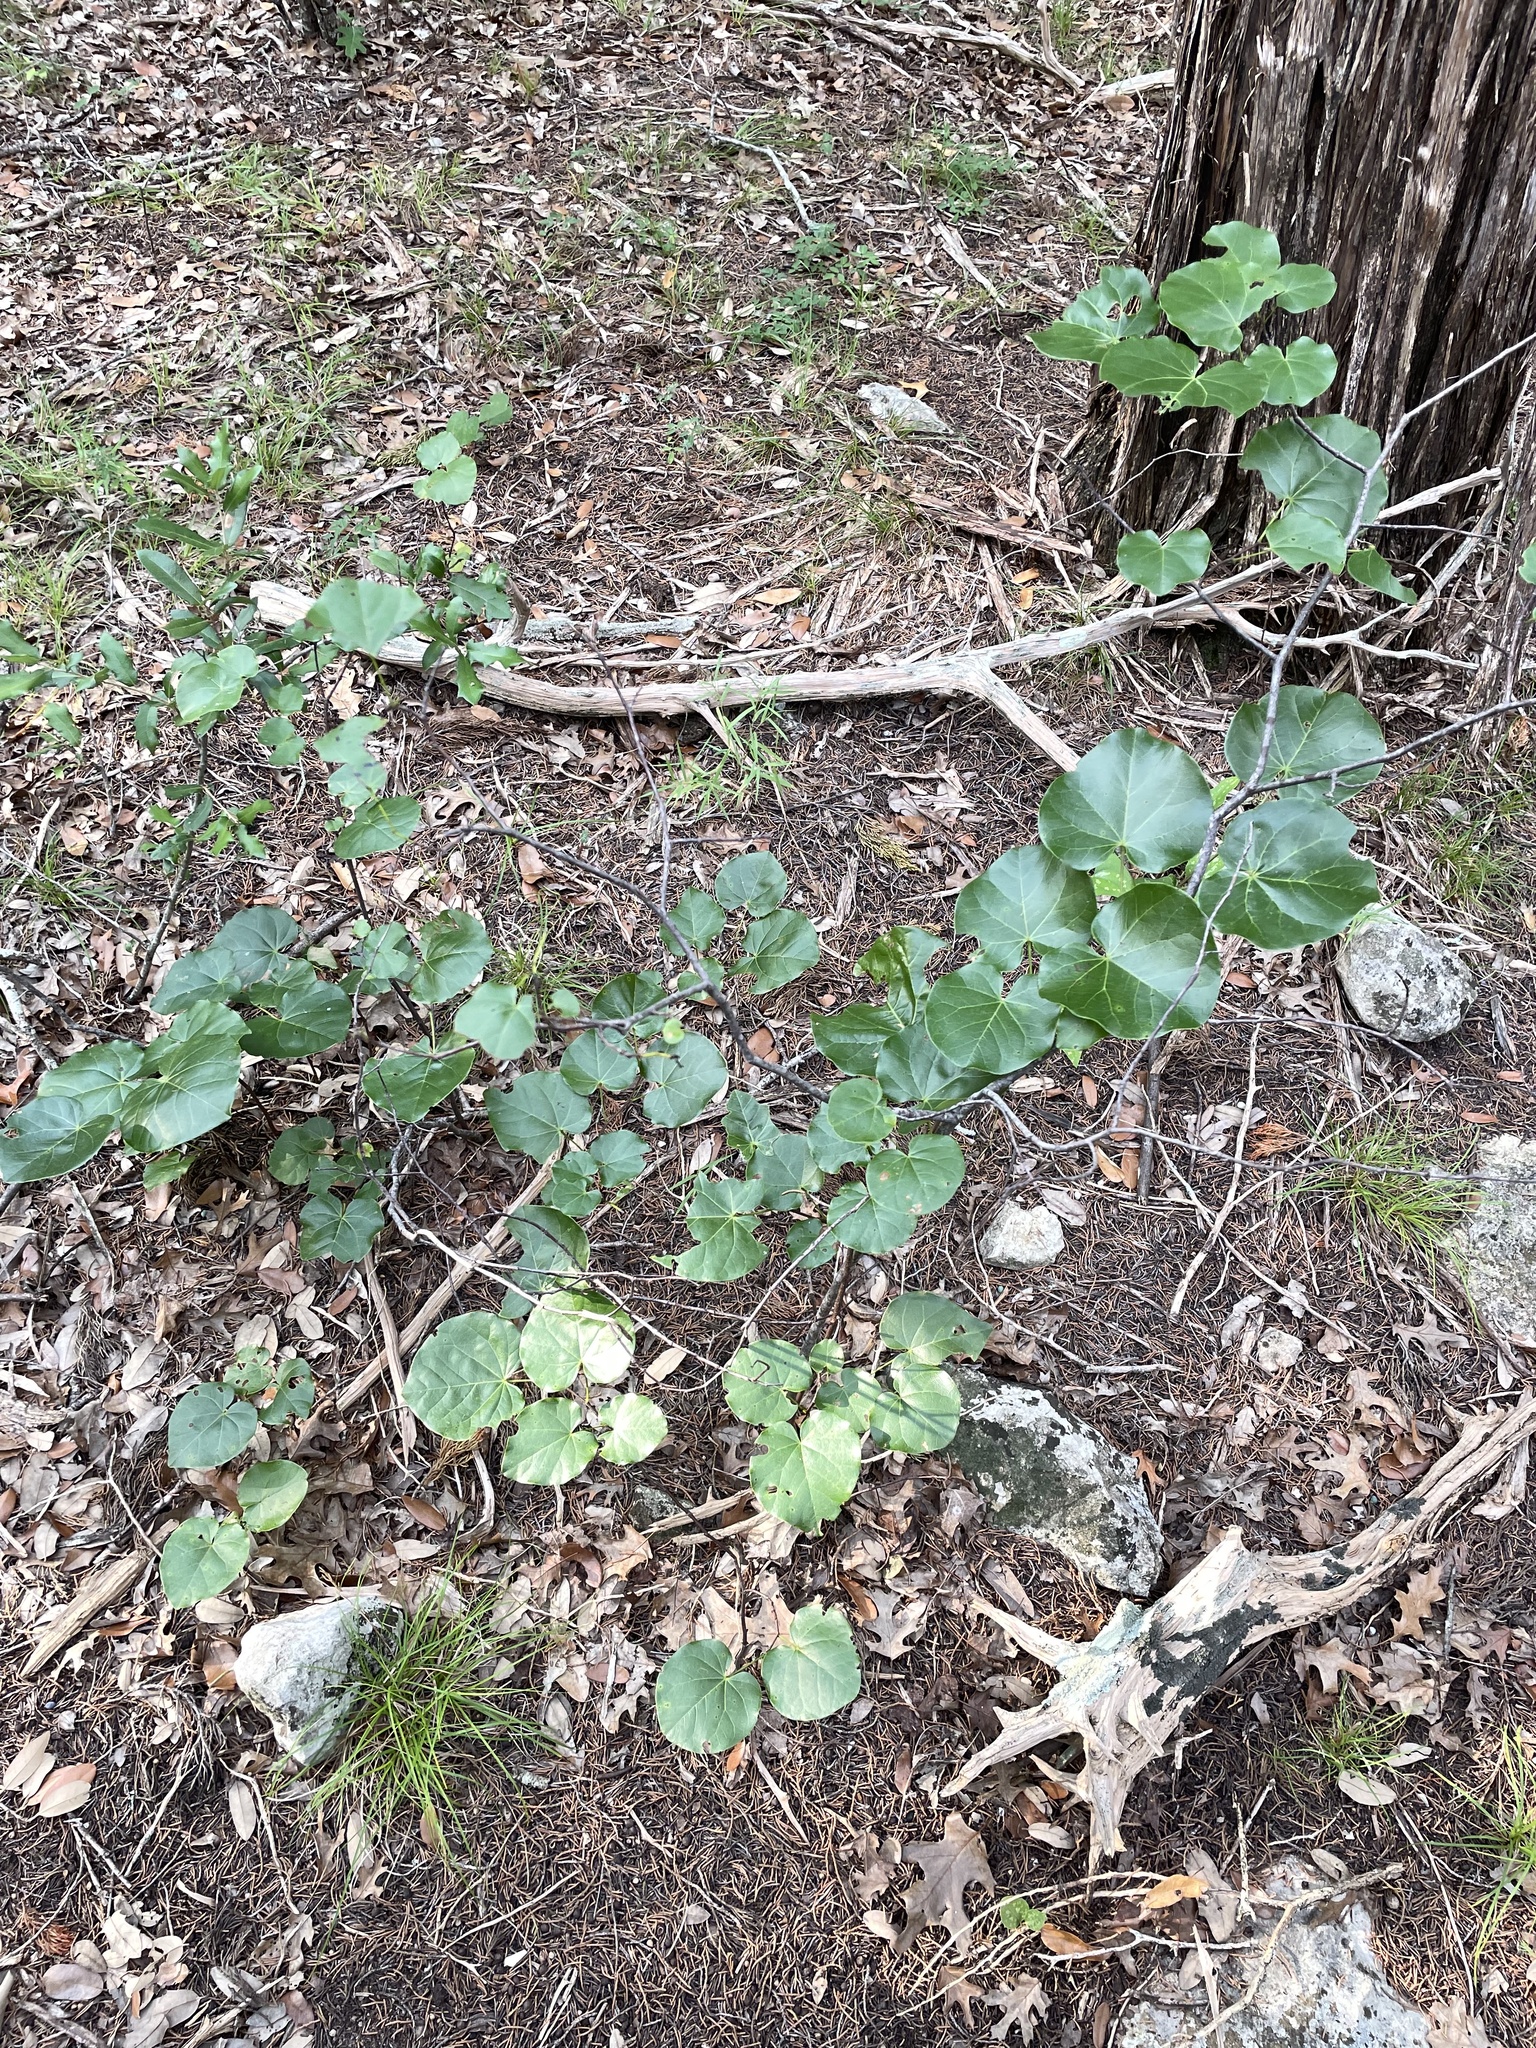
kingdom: Plantae
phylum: Tracheophyta
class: Magnoliopsida
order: Fabales
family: Fabaceae
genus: Cercis
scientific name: Cercis canadensis
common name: Eastern redbud
